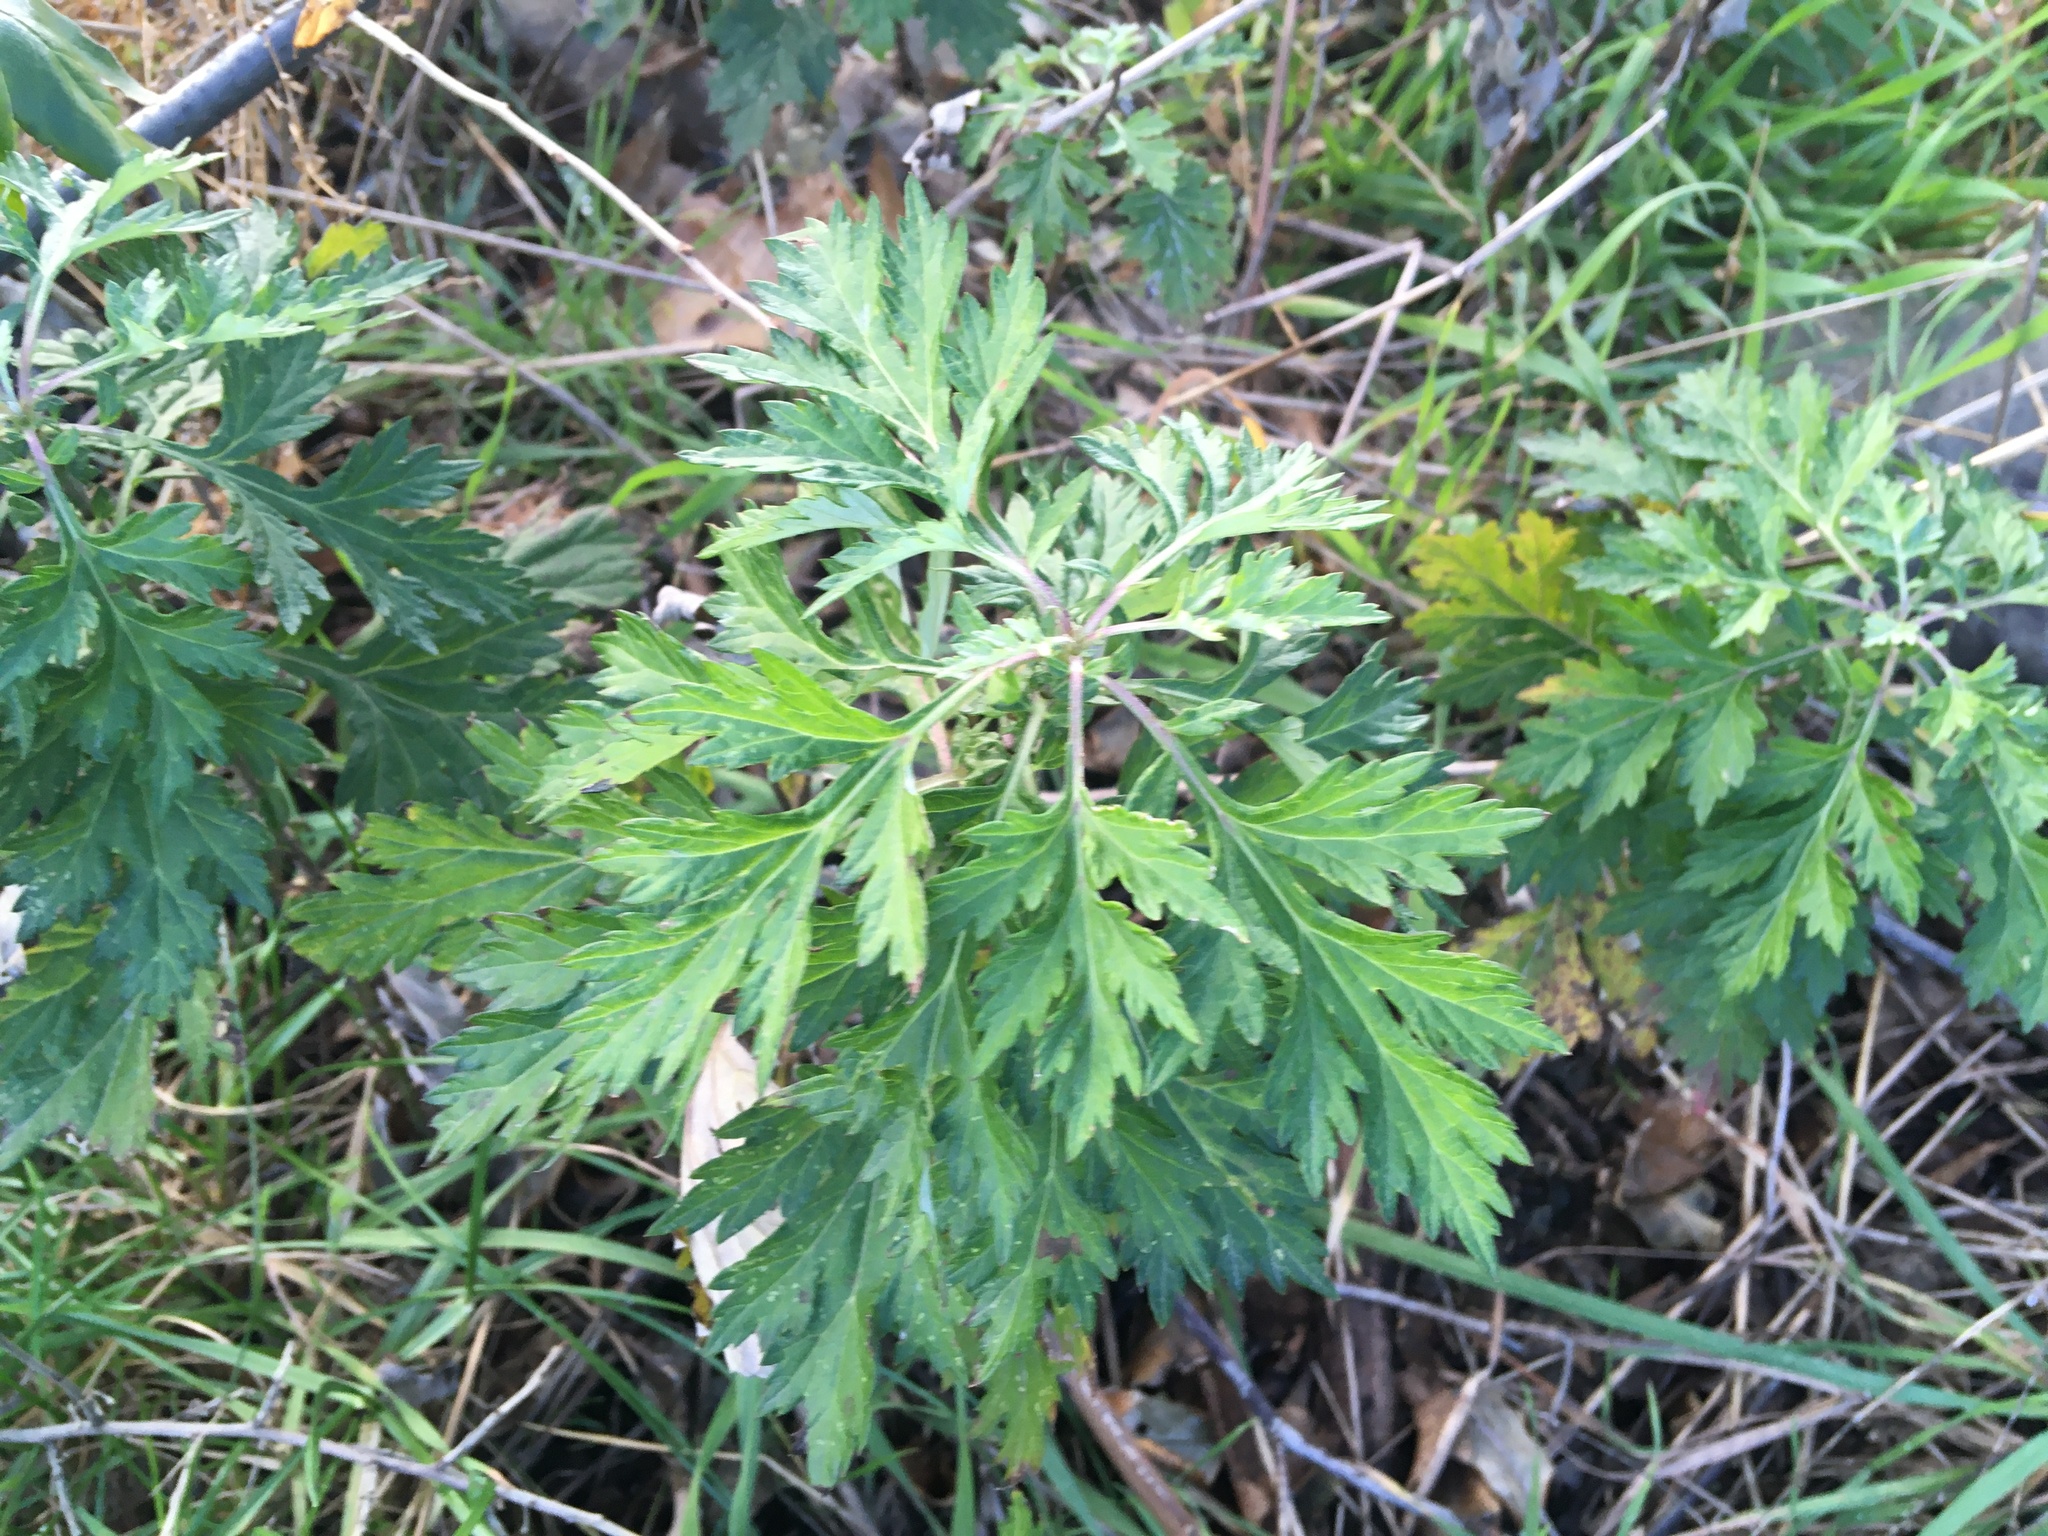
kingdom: Plantae
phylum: Tracheophyta
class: Magnoliopsida
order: Asterales
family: Asteraceae
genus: Artemisia
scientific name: Artemisia vulgaris
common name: Mugwort
